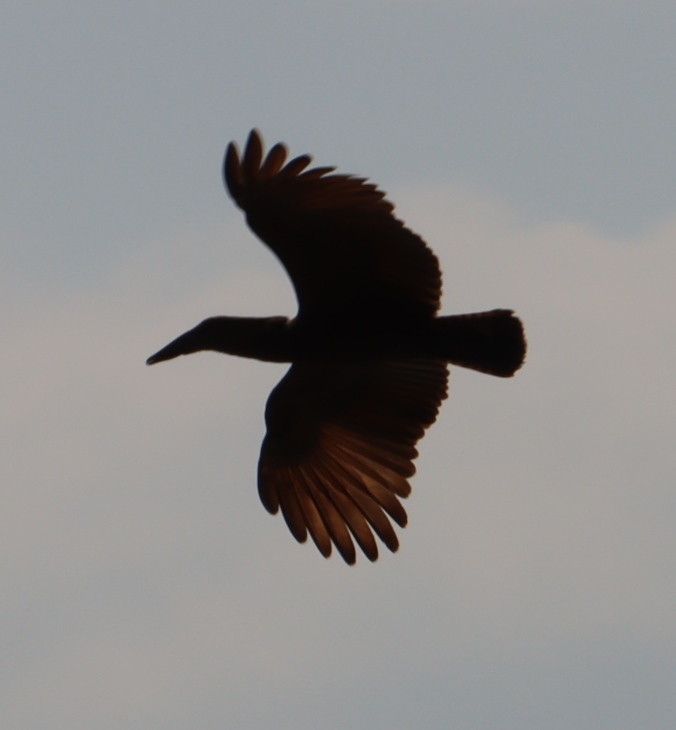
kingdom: Animalia
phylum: Chordata
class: Aves
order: Pelecaniformes
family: Scopidae
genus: Scopus
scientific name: Scopus umbretta
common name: Hamerkop
